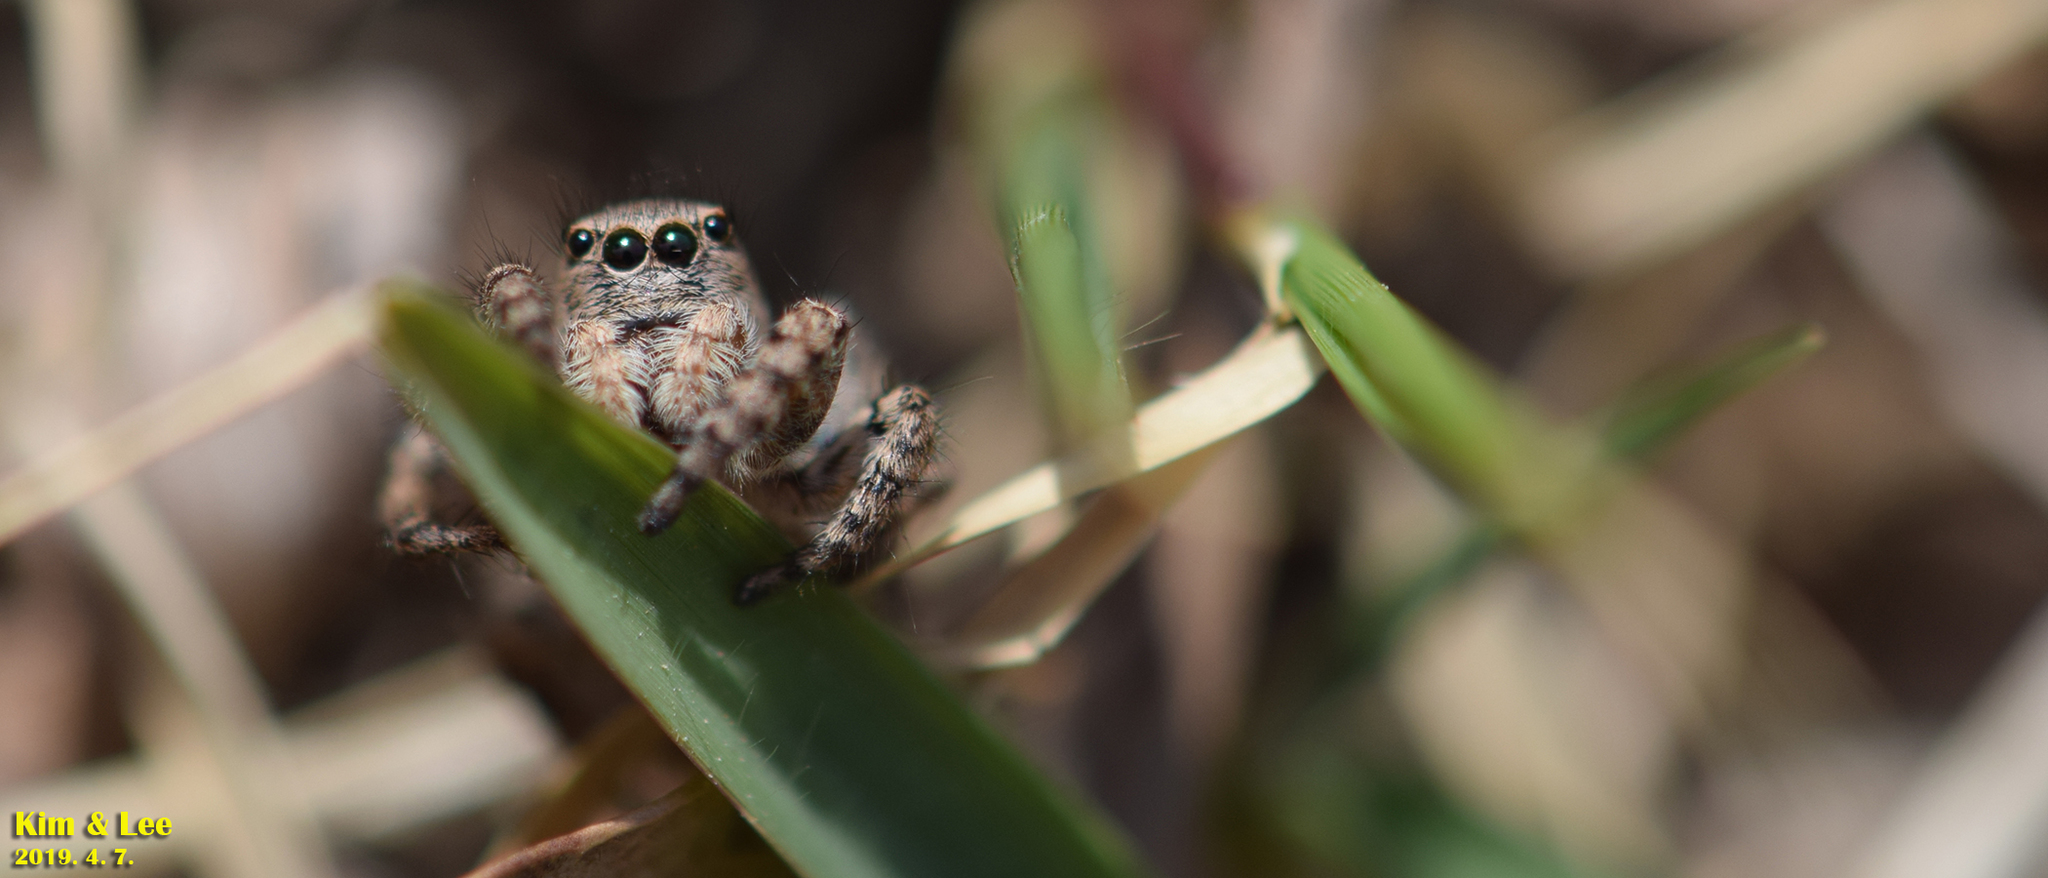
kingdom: Animalia
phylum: Arthropoda
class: Arachnida
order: Araneae
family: Salticidae
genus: Asianellus
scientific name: Asianellus festivus
